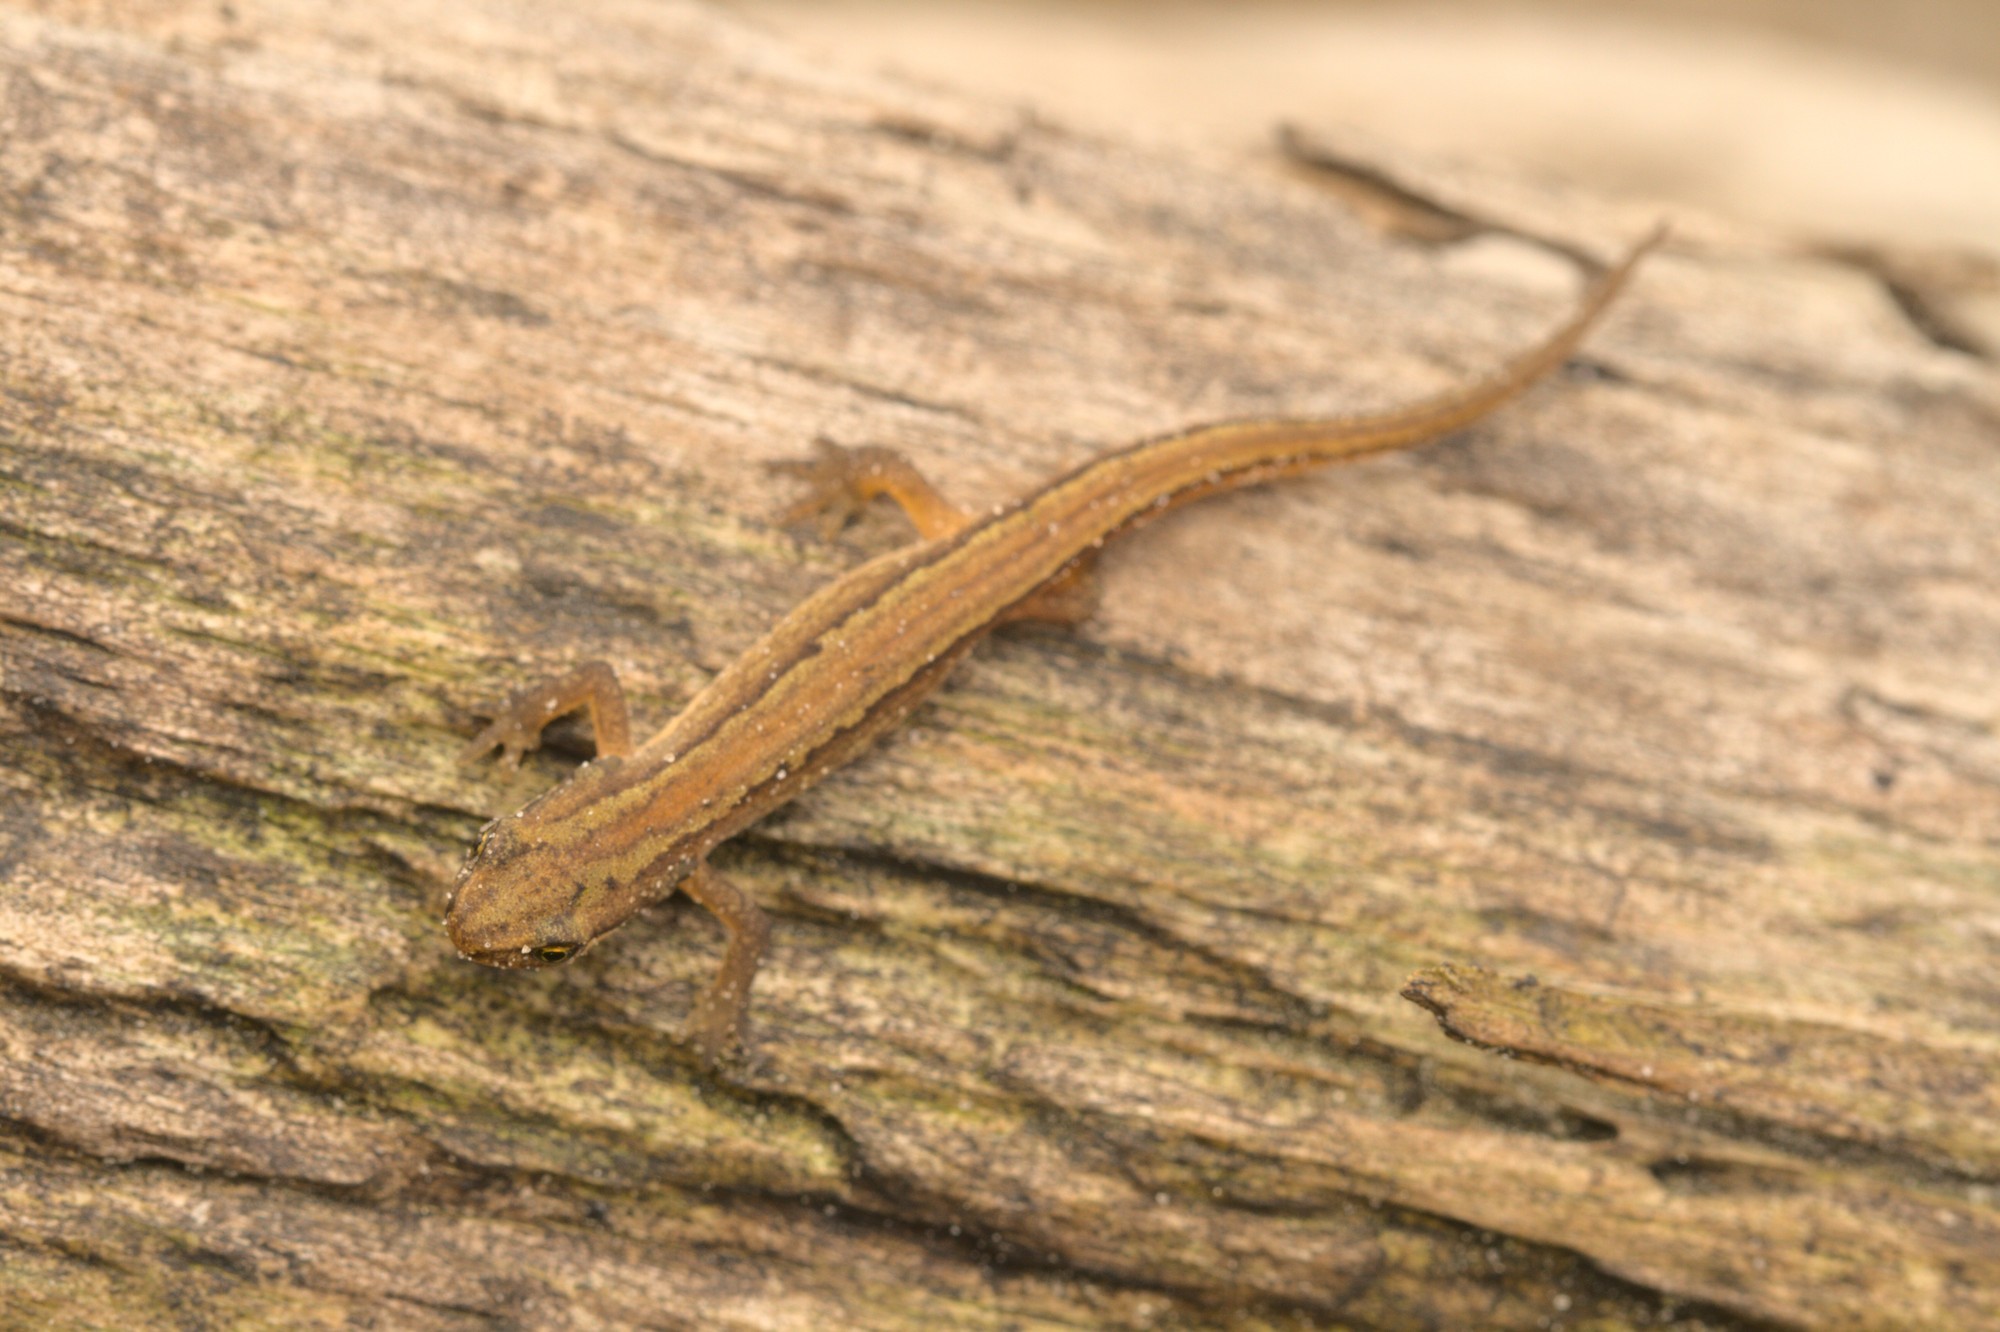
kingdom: Animalia
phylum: Chordata
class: Amphibia
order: Caudata
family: Salamandridae
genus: Lissotriton
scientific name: Lissotriton vulgaris
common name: Smooth newt
